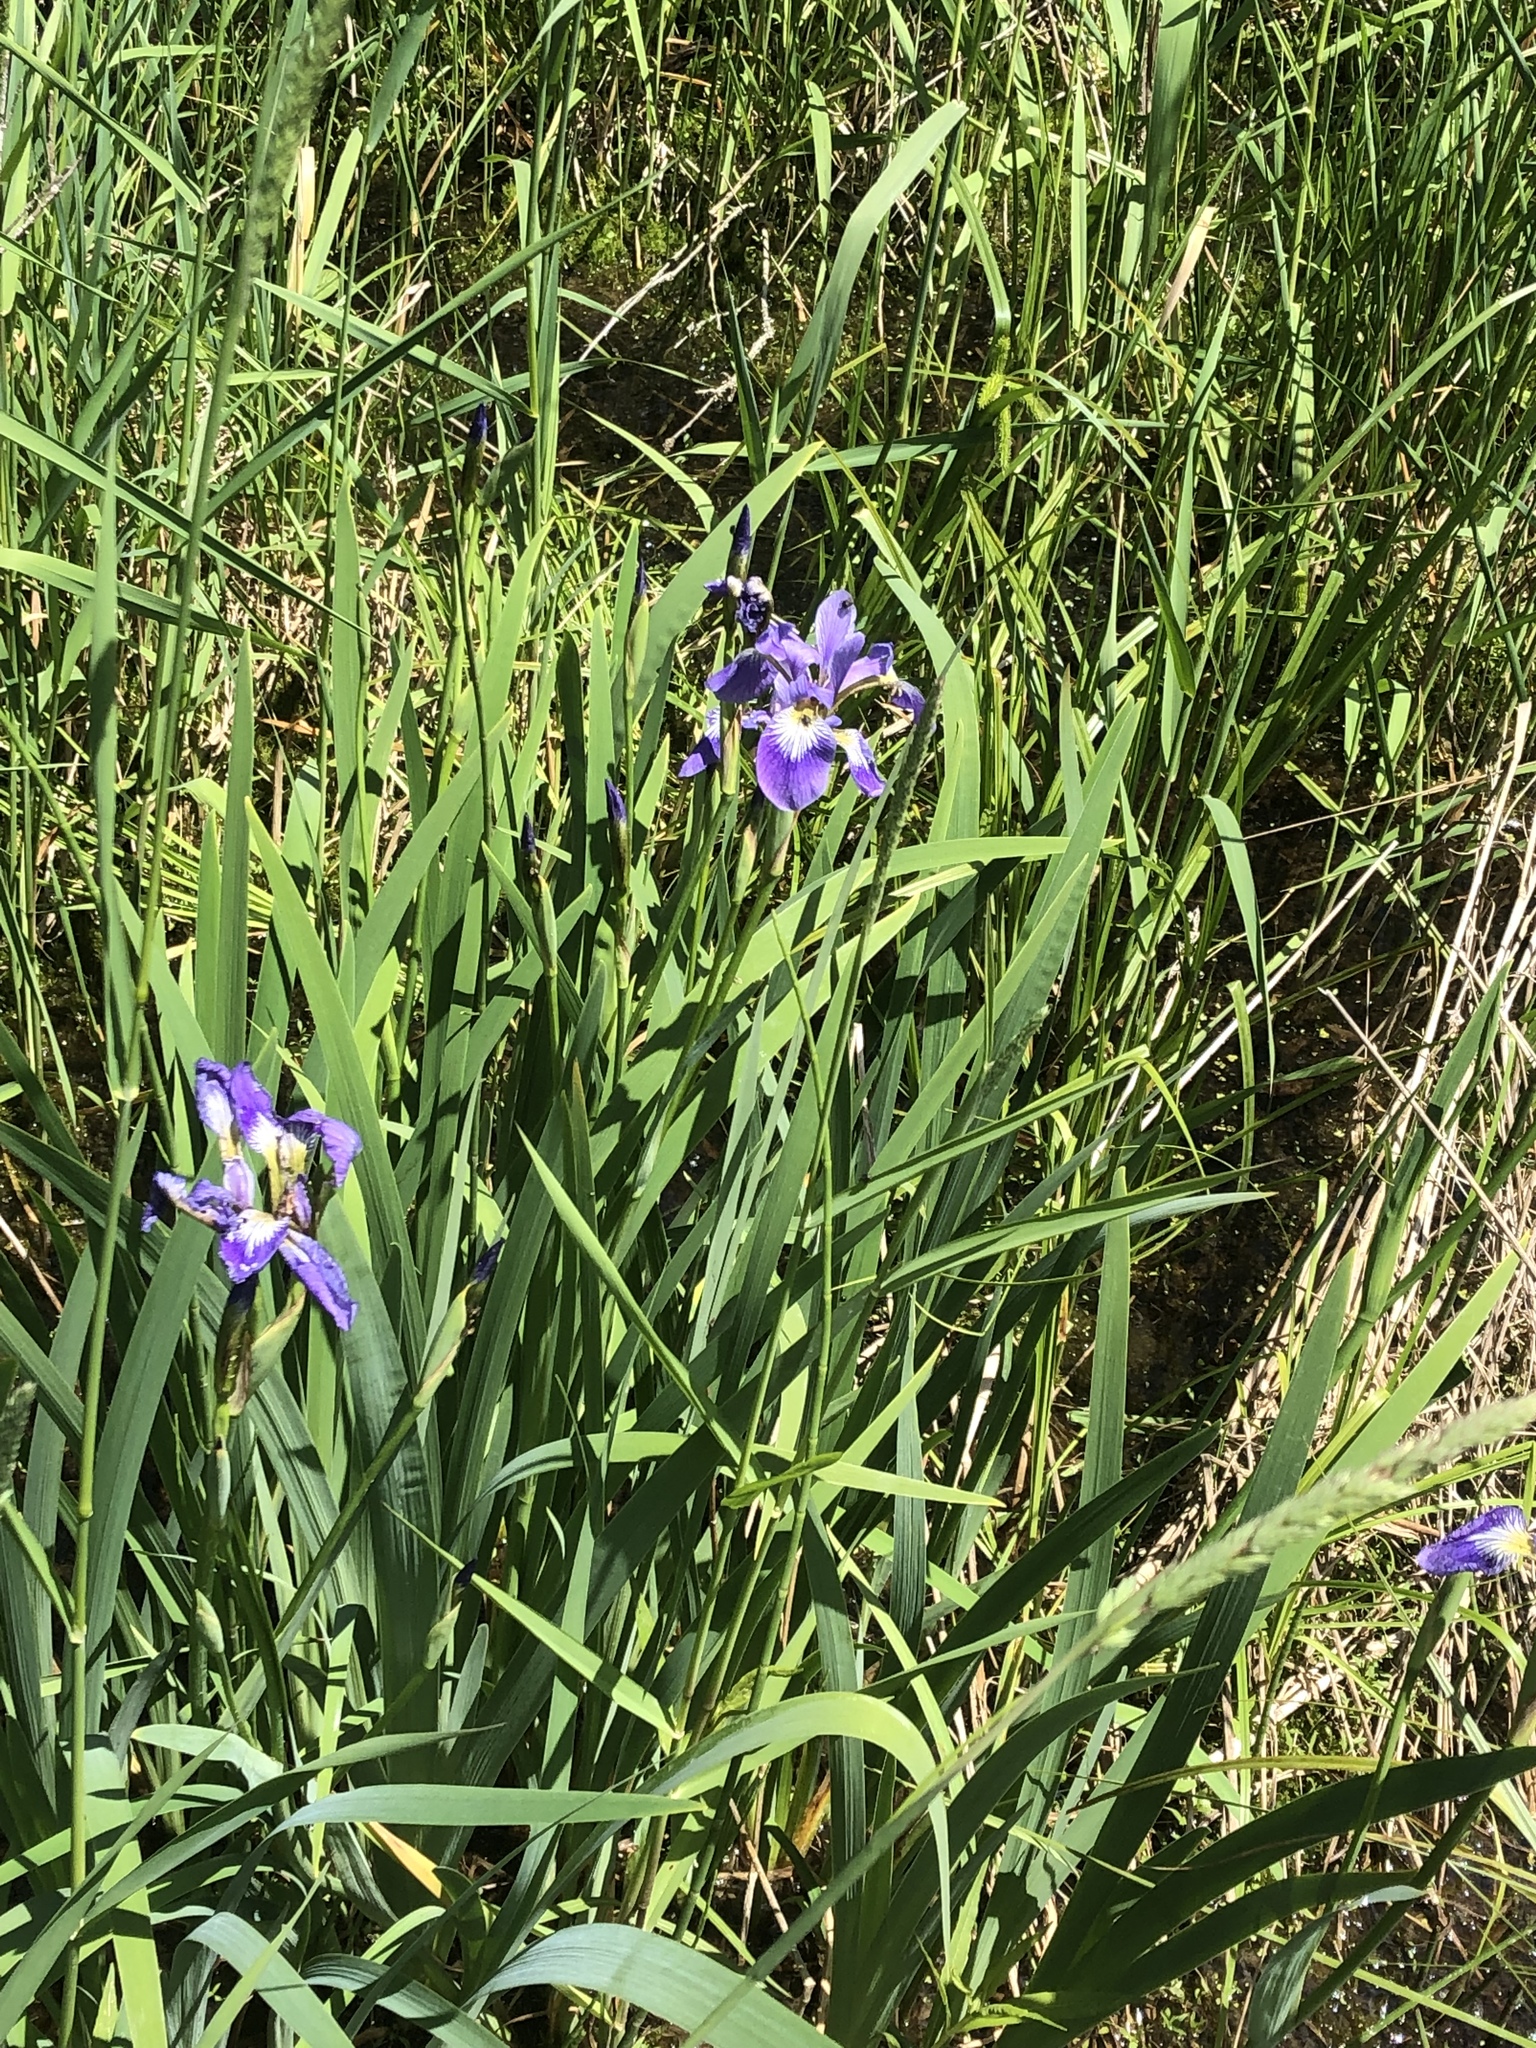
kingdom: Plantae
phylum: Tracheophyta
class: Liliopsida
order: Asparagales
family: Iridaceae
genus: Iris
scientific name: Iris versicolor
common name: Purple iris
